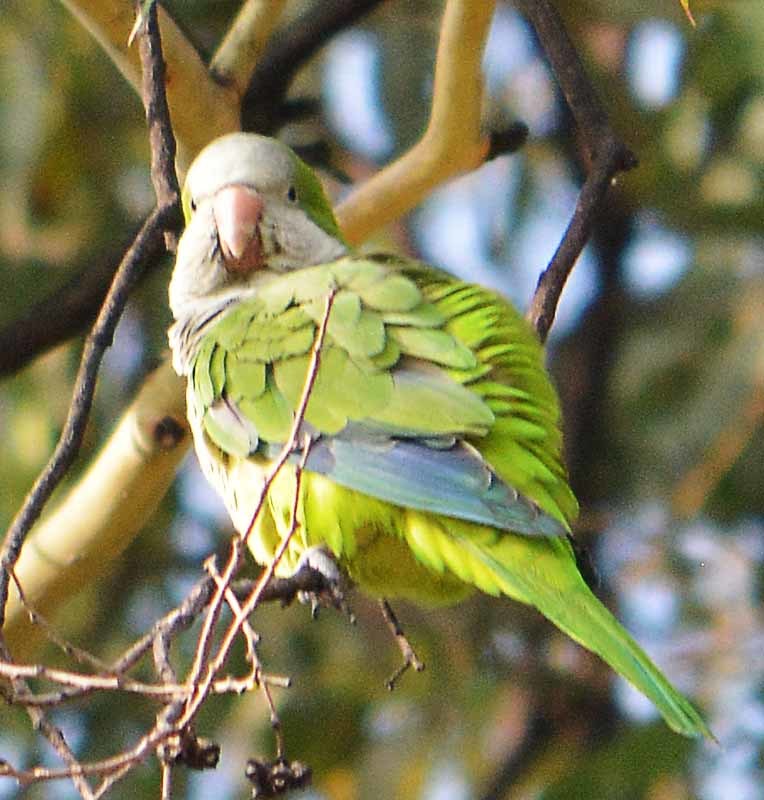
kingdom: Animalia
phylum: Chordata
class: Aves
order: Psittaciformes
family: Psittacidae
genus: Myiopsitta
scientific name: Myiopsitta monachus
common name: Monk parakeet
